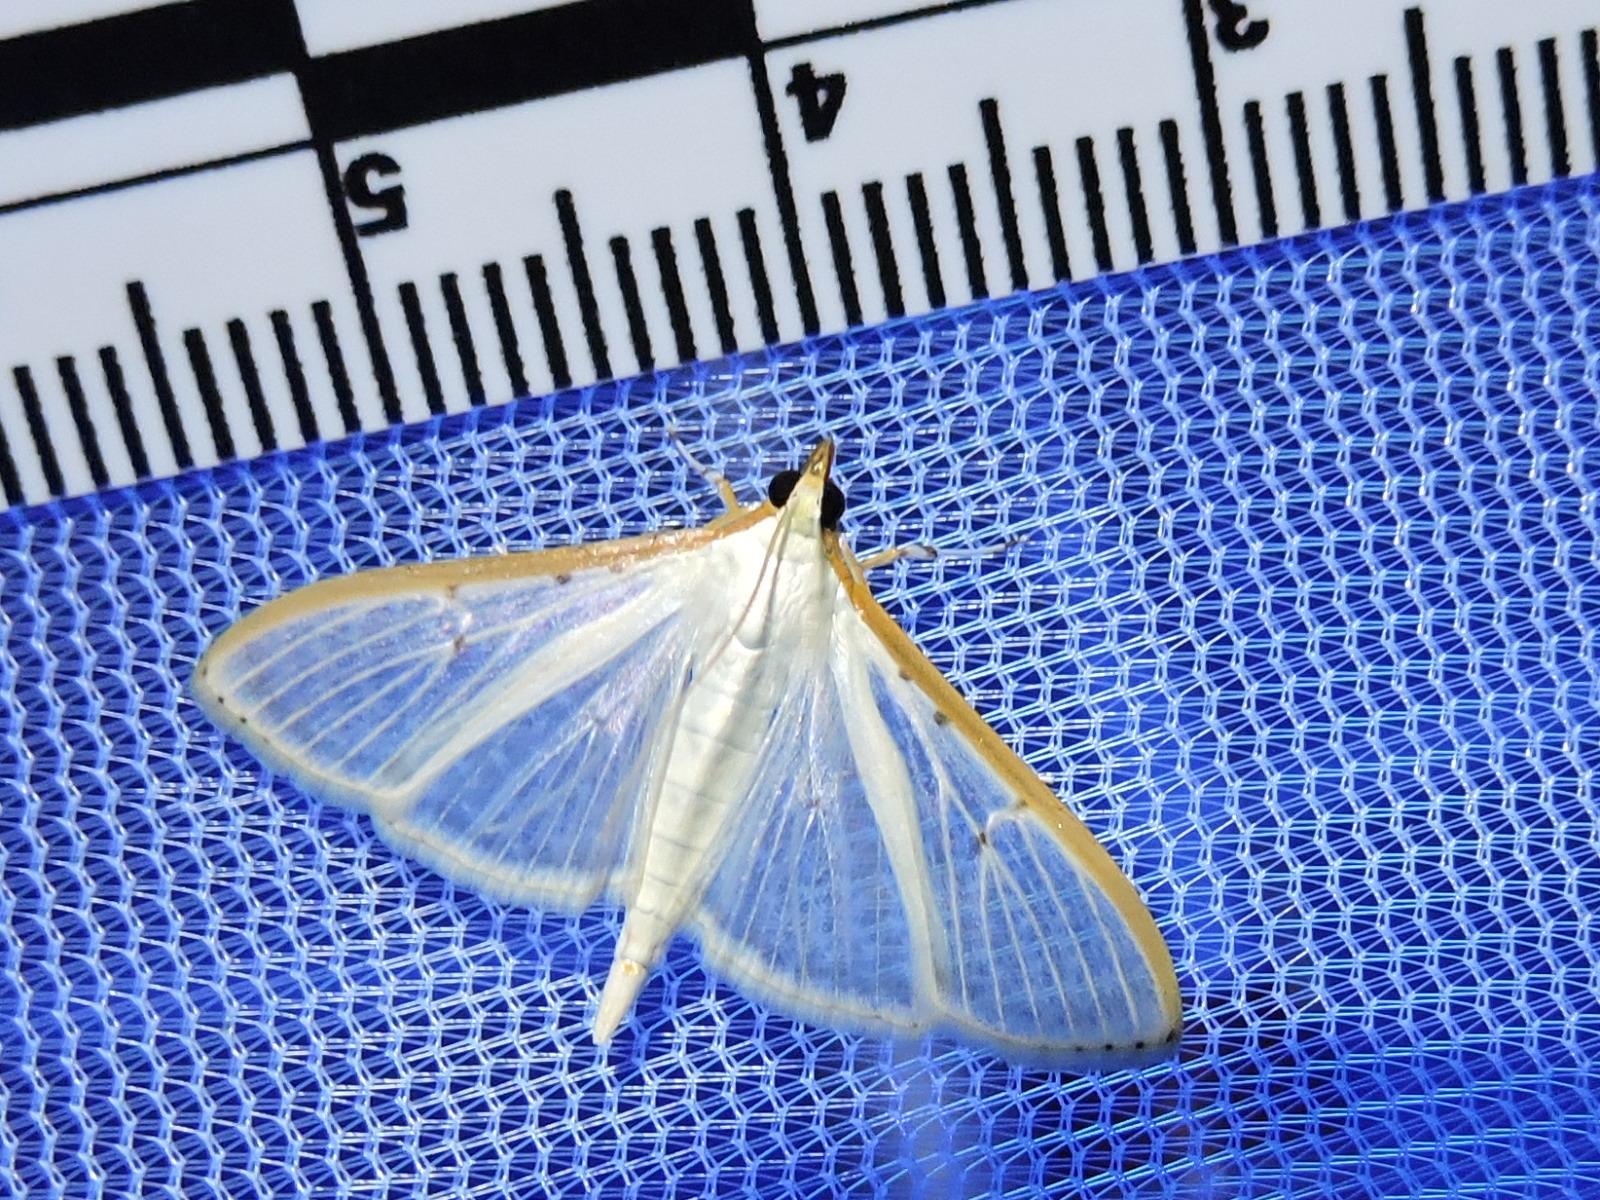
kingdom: Animalia
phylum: Arthropoda
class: Insecta
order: Lepidoptera
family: Crambidae
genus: Palpita
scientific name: Palpita quadristigmalis
